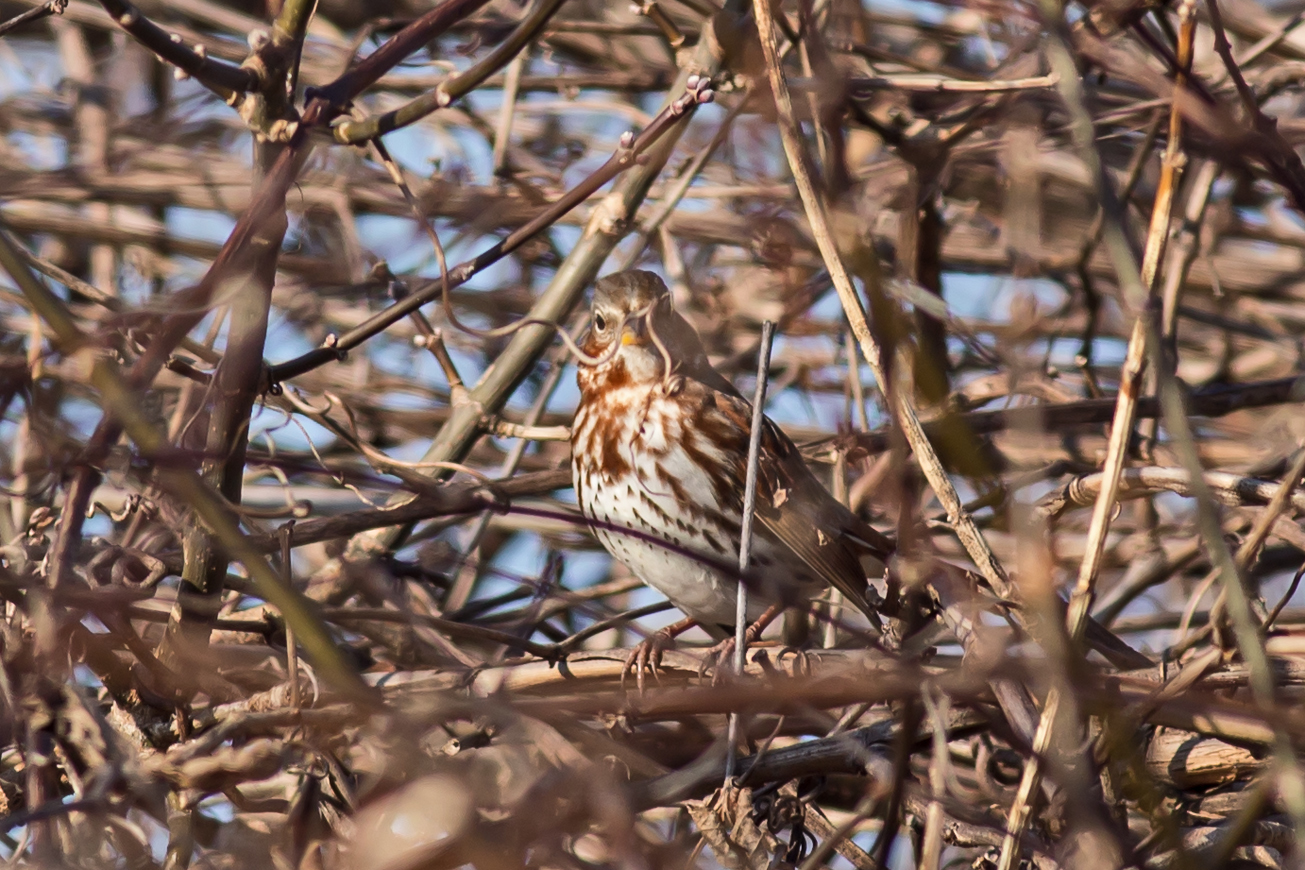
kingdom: Animalia
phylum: Chordata
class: Aves
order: Passeriformes
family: Passerellidae
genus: Passerella
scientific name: Passerella iliaca
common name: Fox sparrow
